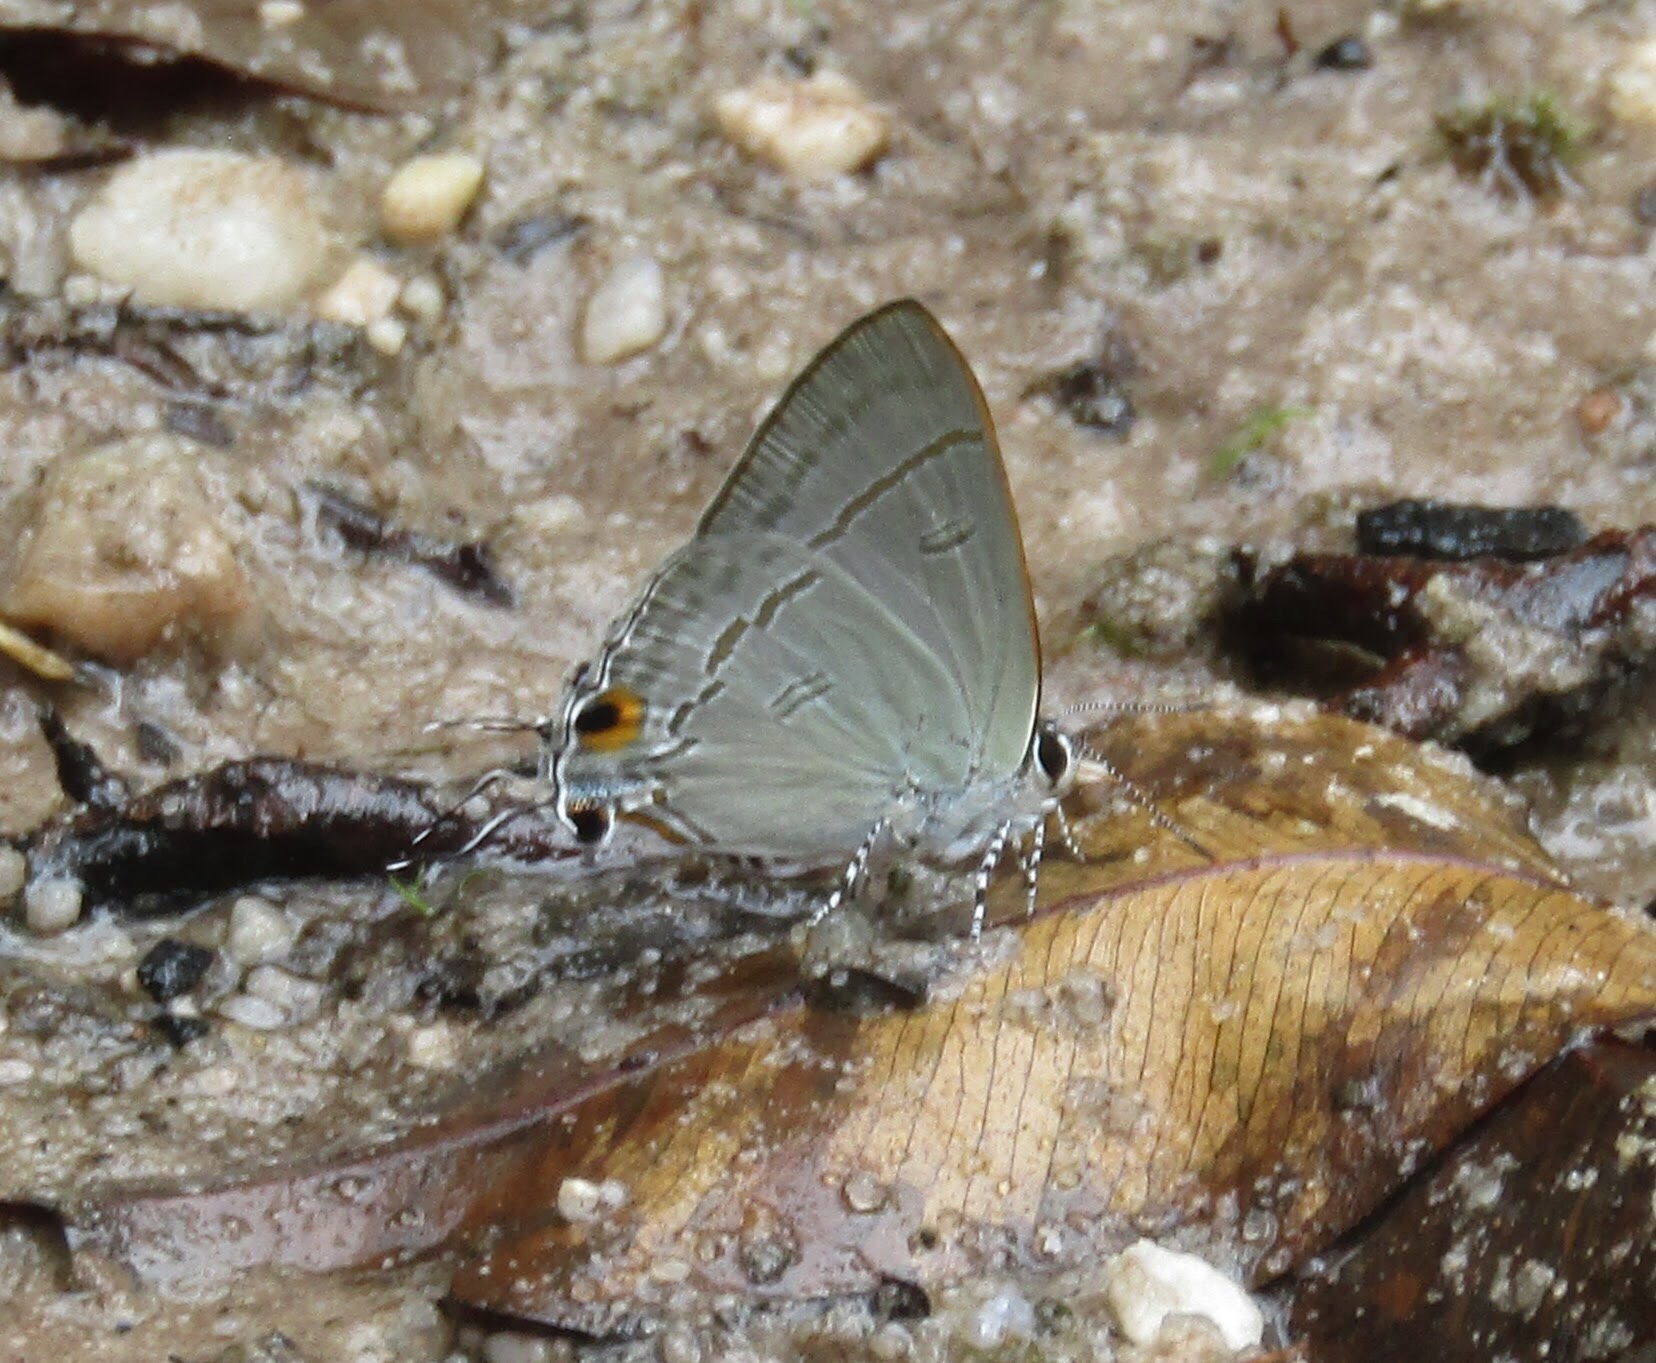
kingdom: Animalia
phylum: Arthropoda
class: Insecta
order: Lepidoptera
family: Lycaenidae
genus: Hypolycaena
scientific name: Hypolycaena erylus
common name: Common tit
